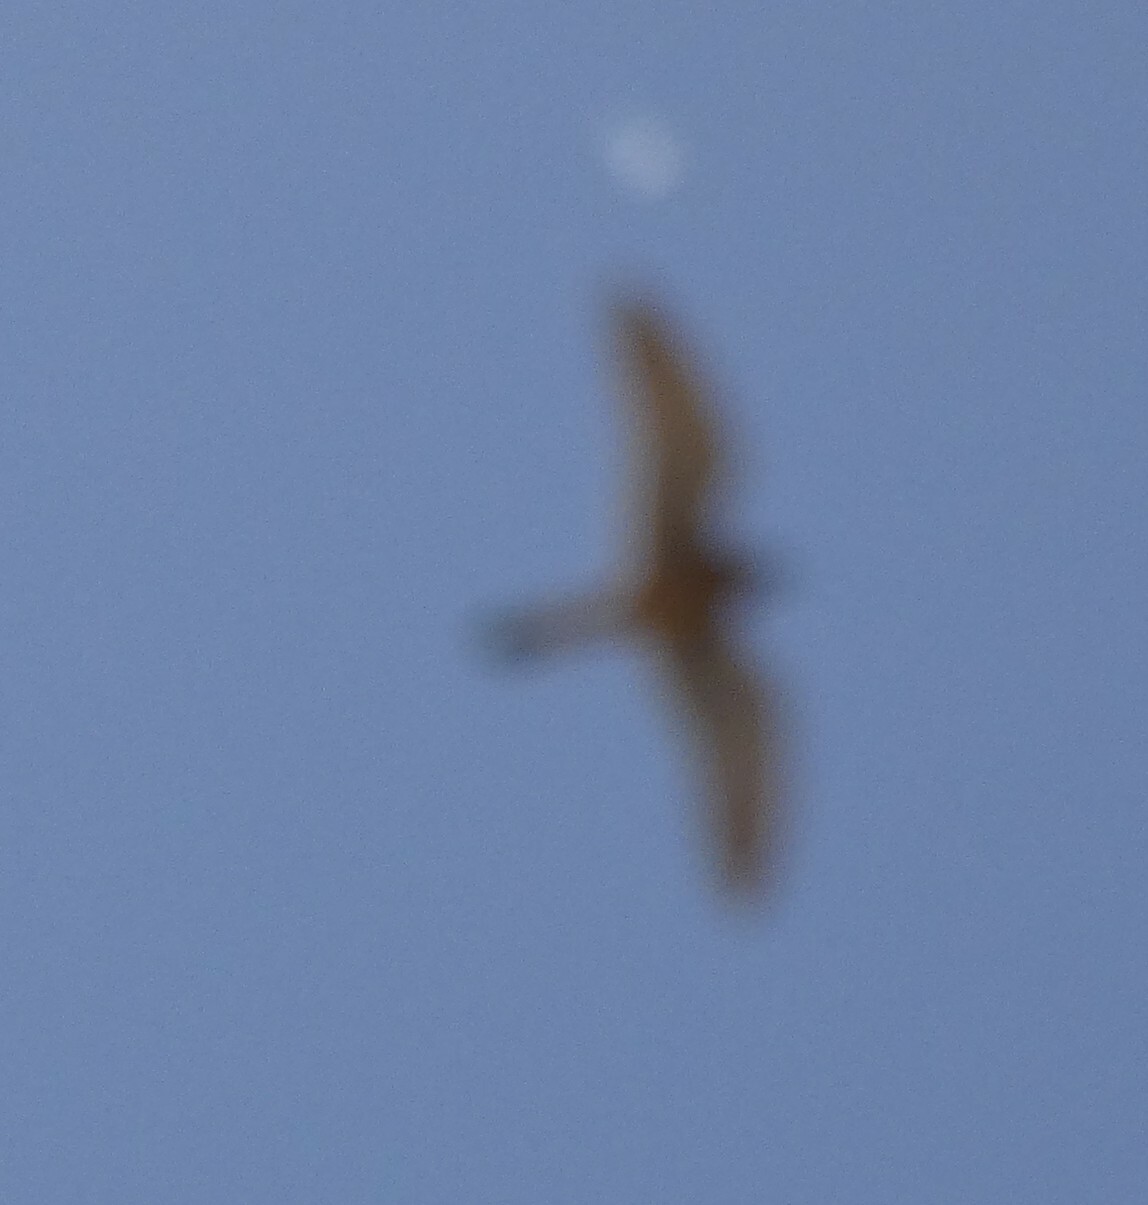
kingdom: Animalia
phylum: Chordata
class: Aves
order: Falconiformes
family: Falconidae
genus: Falco
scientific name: Falco tinnunculus
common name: Common kestrel
